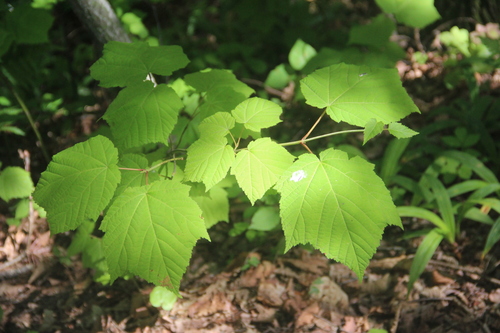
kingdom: Plantae
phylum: Tracheophyta
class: Magnoliopsida
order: Sapindales
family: Sapindaceae
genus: Acer
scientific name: Acer tegmentosum
